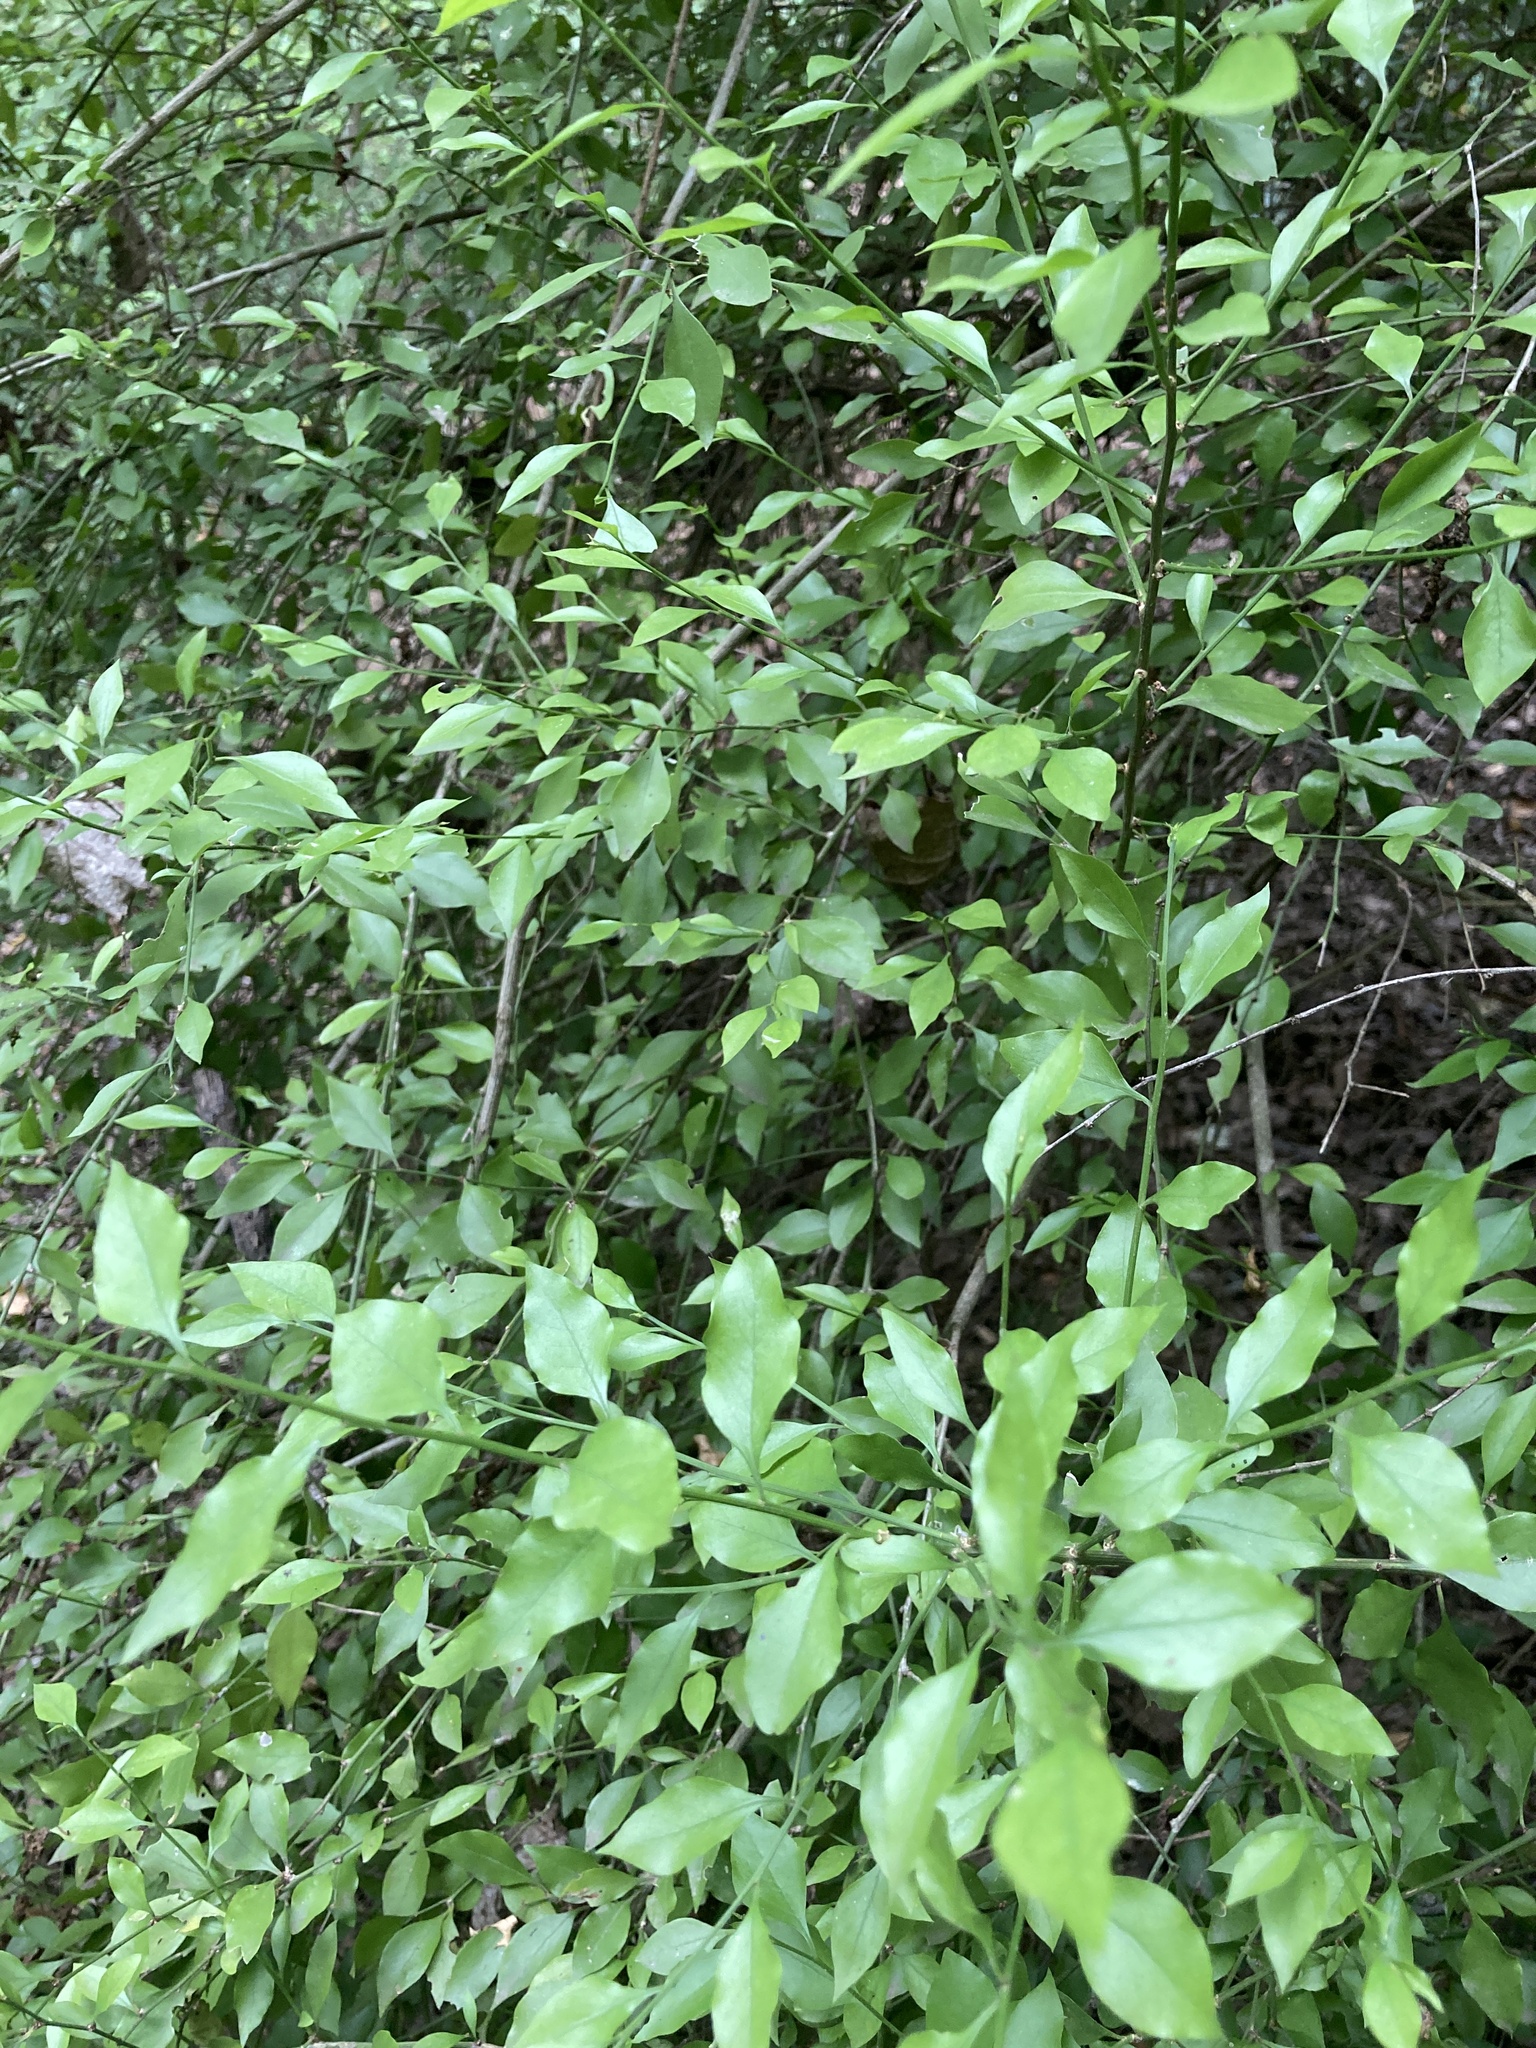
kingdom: Plantae
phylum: Tracheophyta
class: Magnoliopsida
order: Celastrales
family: Celastraceae
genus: Schaefferia
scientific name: Schaefferia argentinensis
